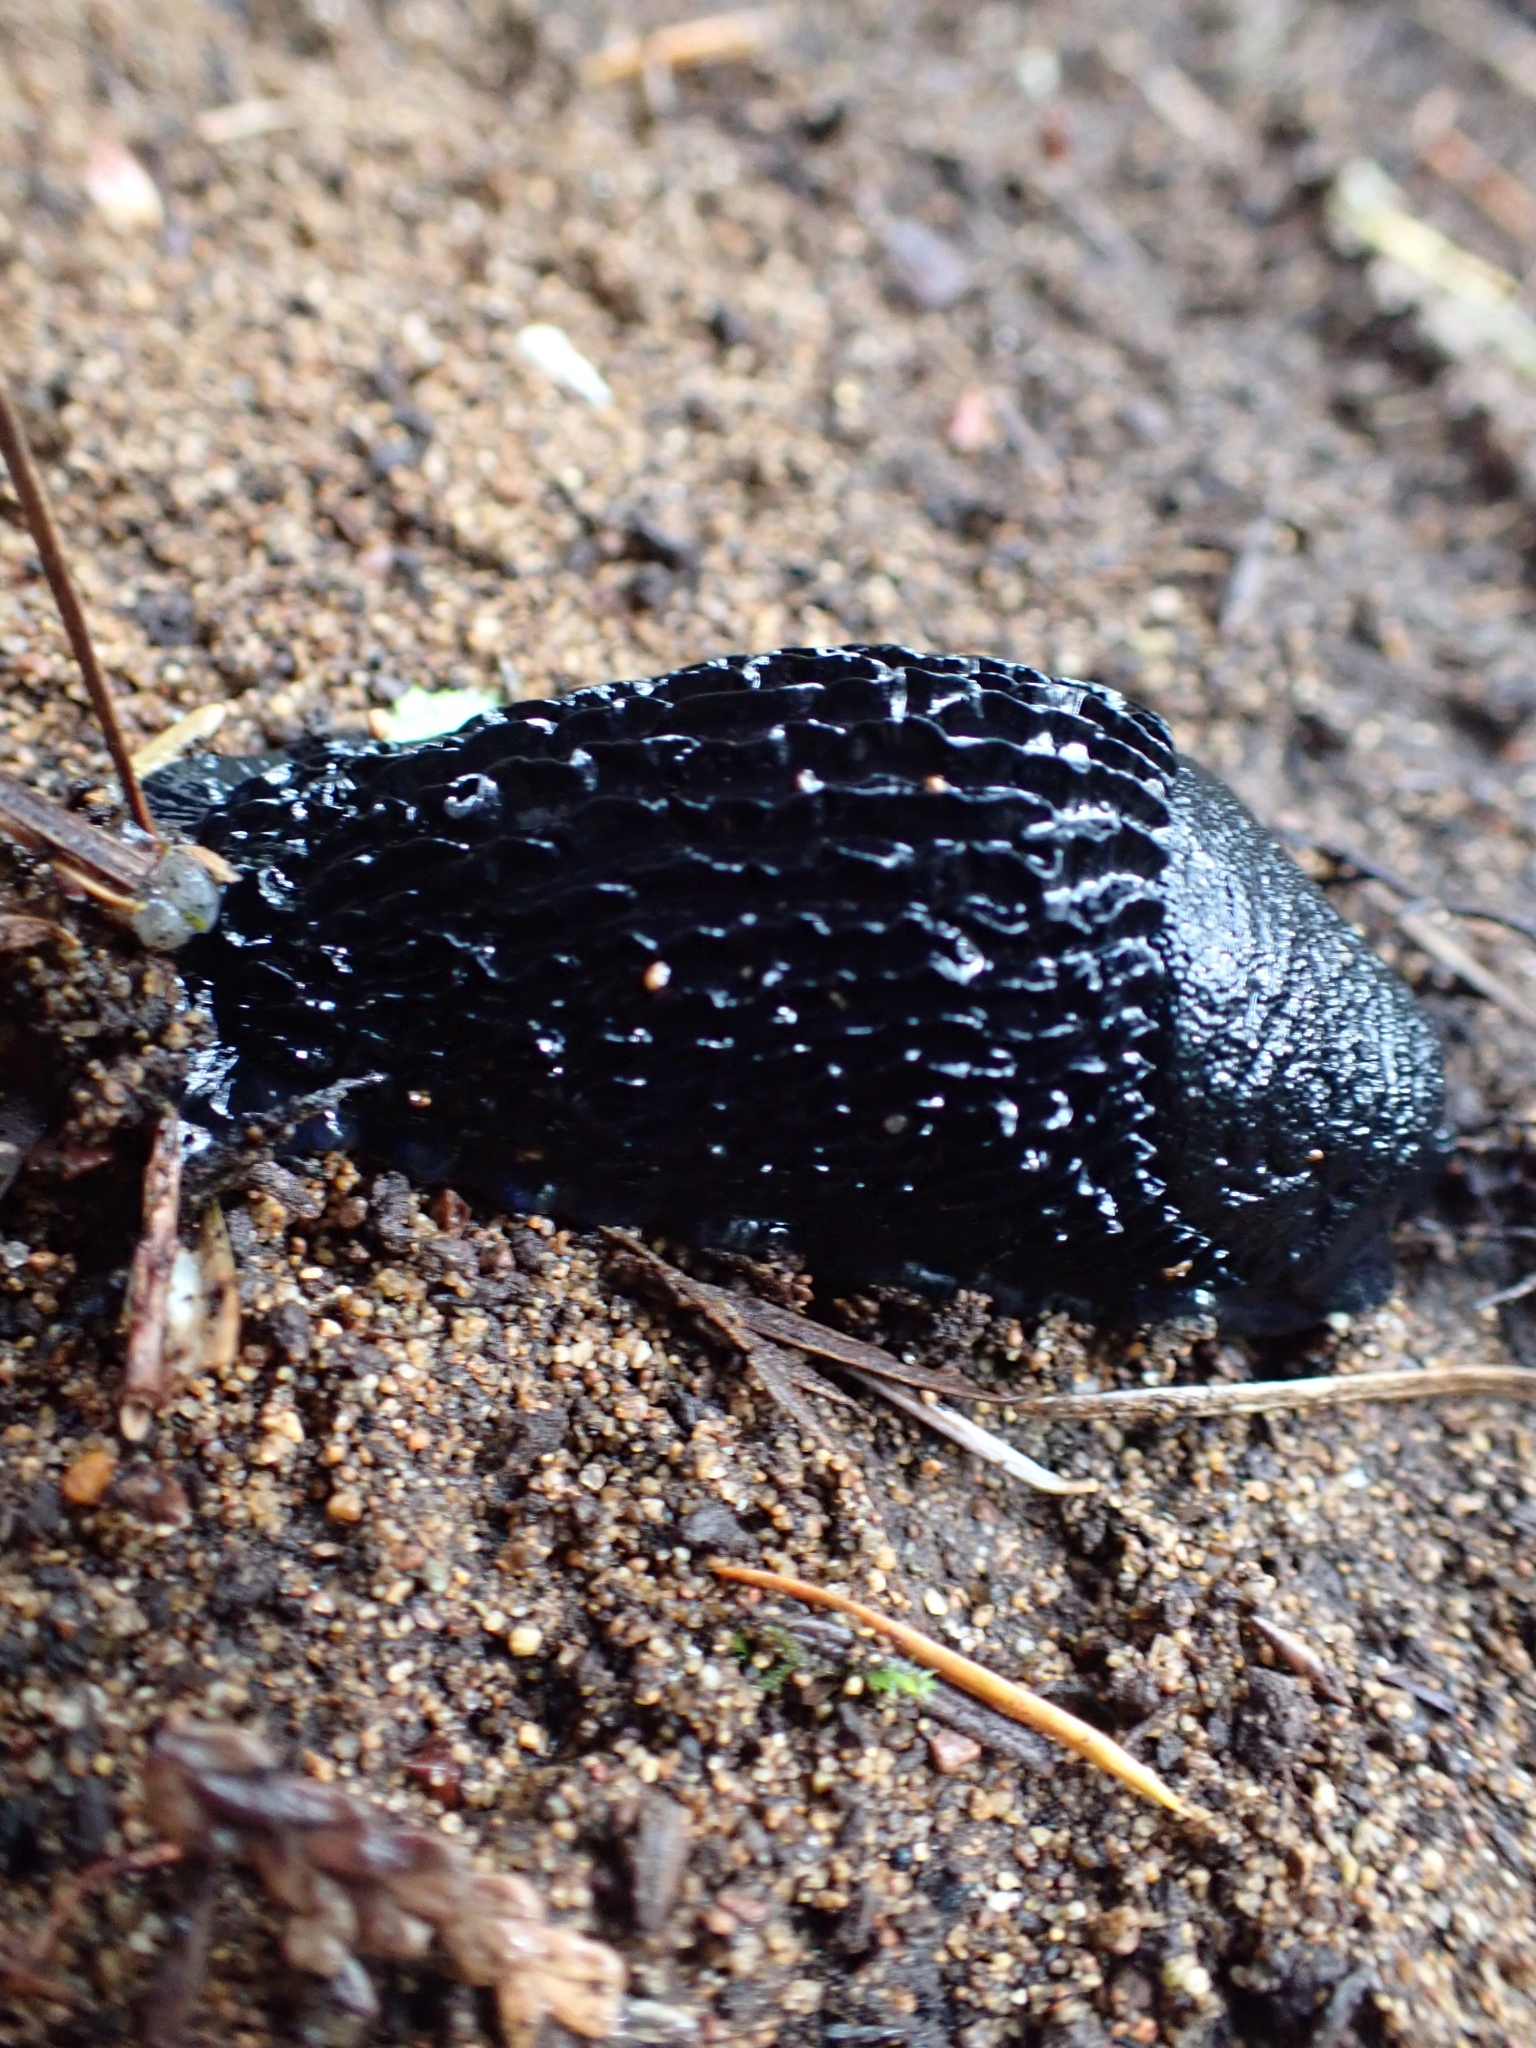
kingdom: Animalia
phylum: Mollusca
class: Gastropoda
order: Stylommatophora
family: Arionidae
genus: Arion
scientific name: Arion
